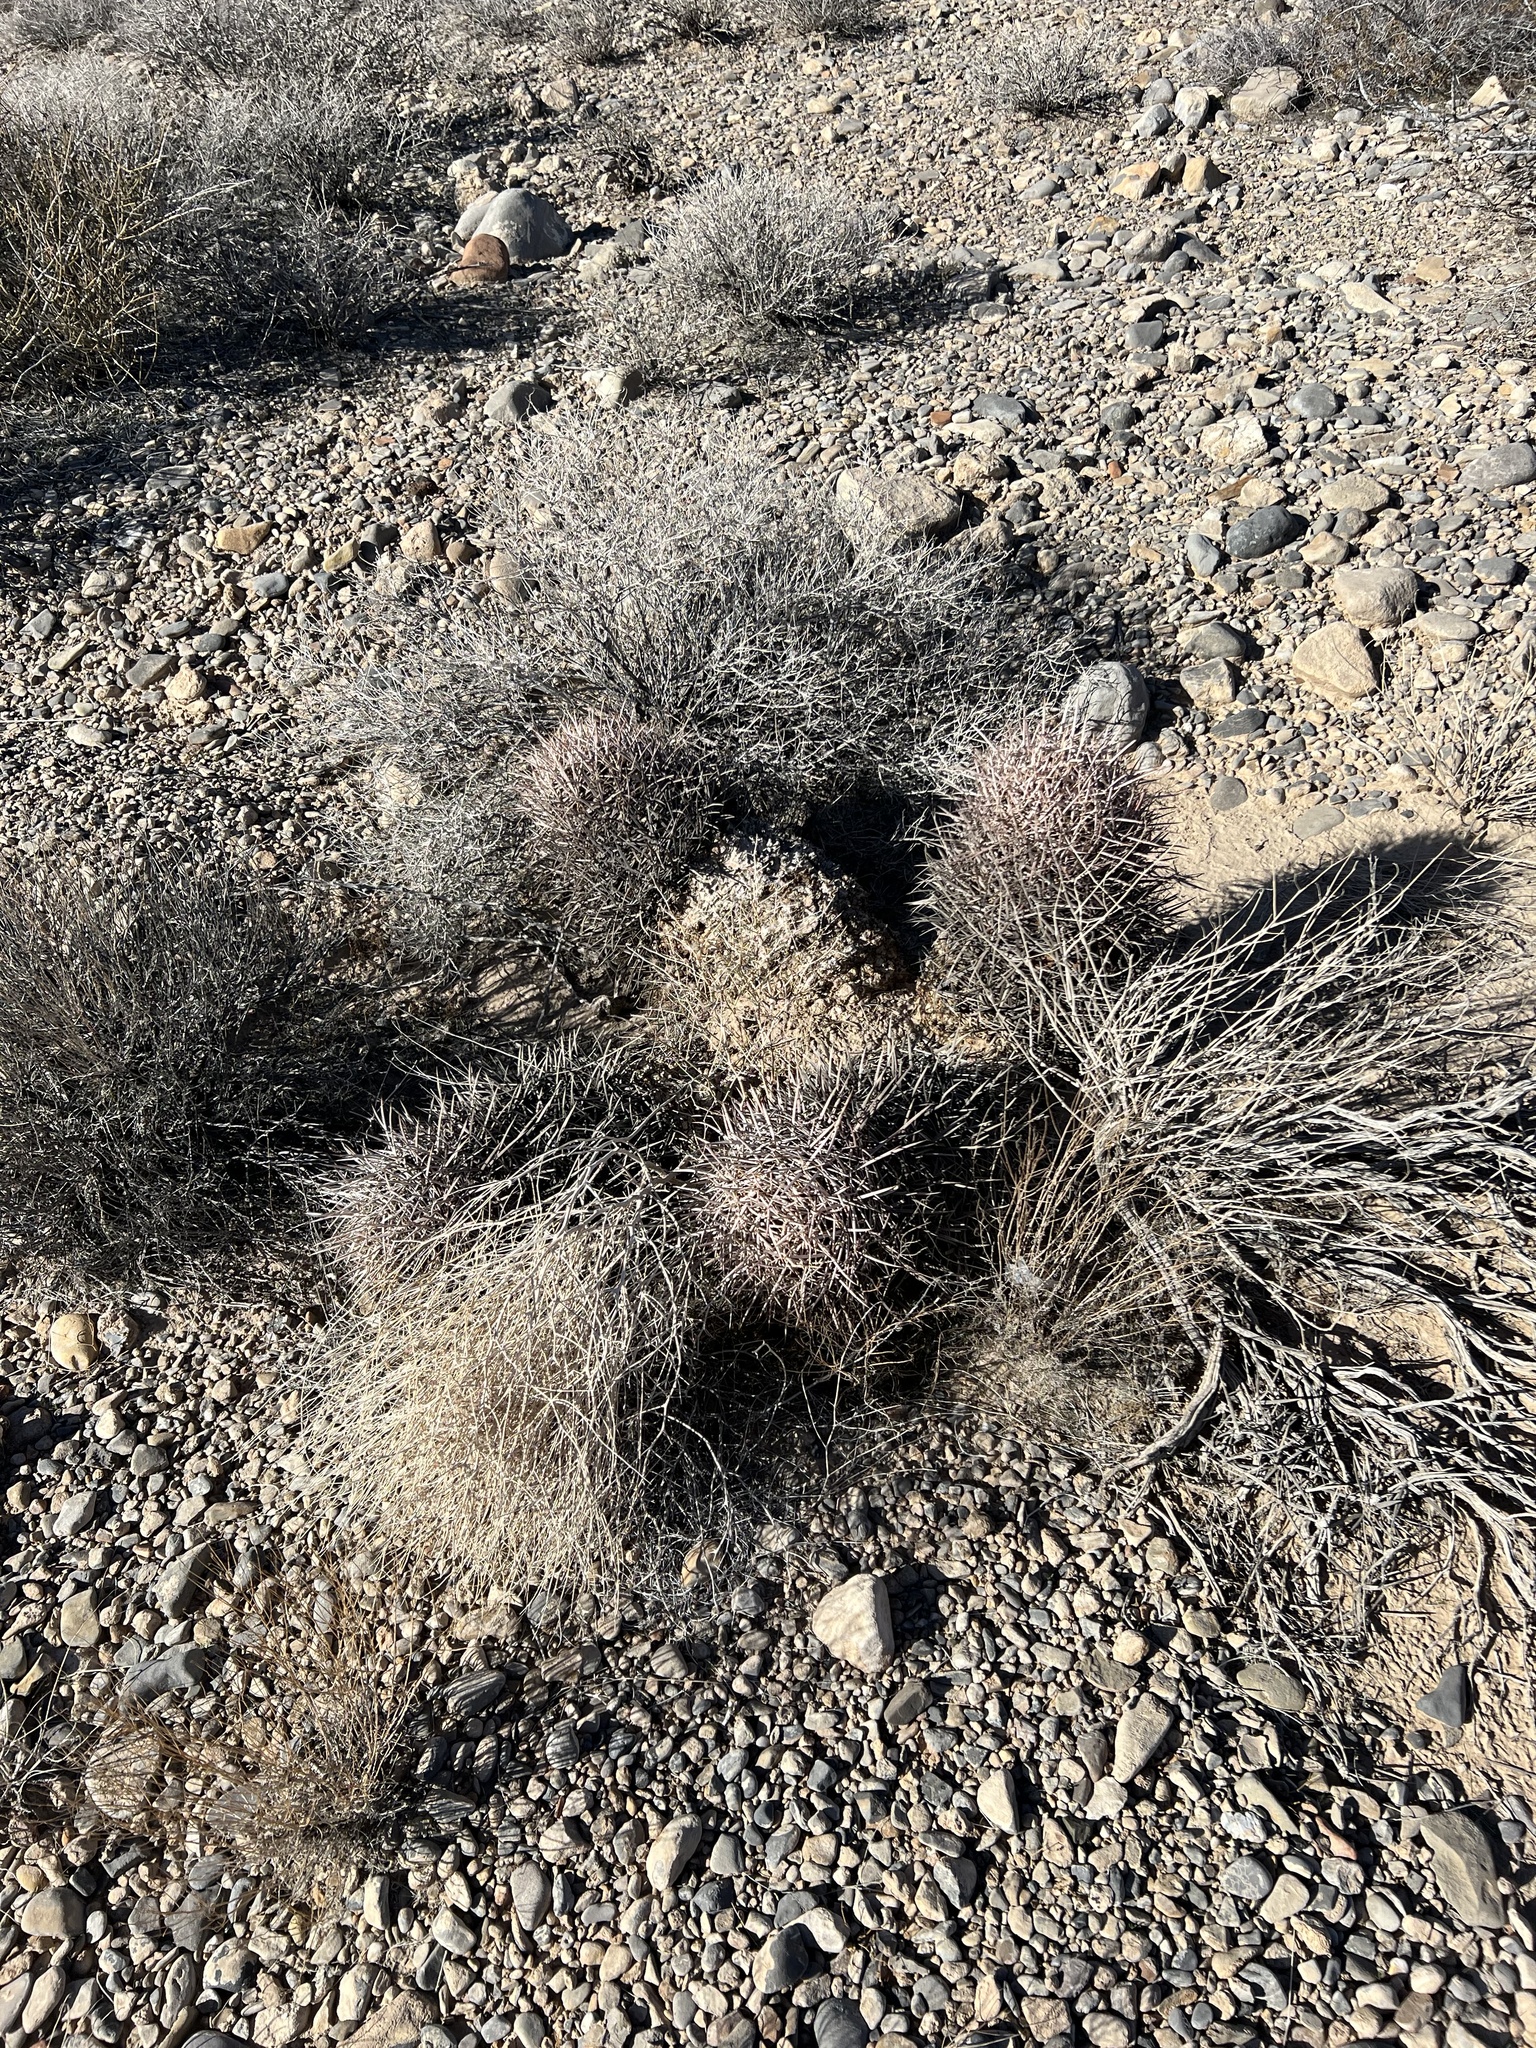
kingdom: Plantae
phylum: Tracheophyta
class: Magnoliopsida
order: Caryophyllales
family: Cactaceae
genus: Echinocactus
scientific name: Echinocactus polycephalus
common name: Cottontop cactus
